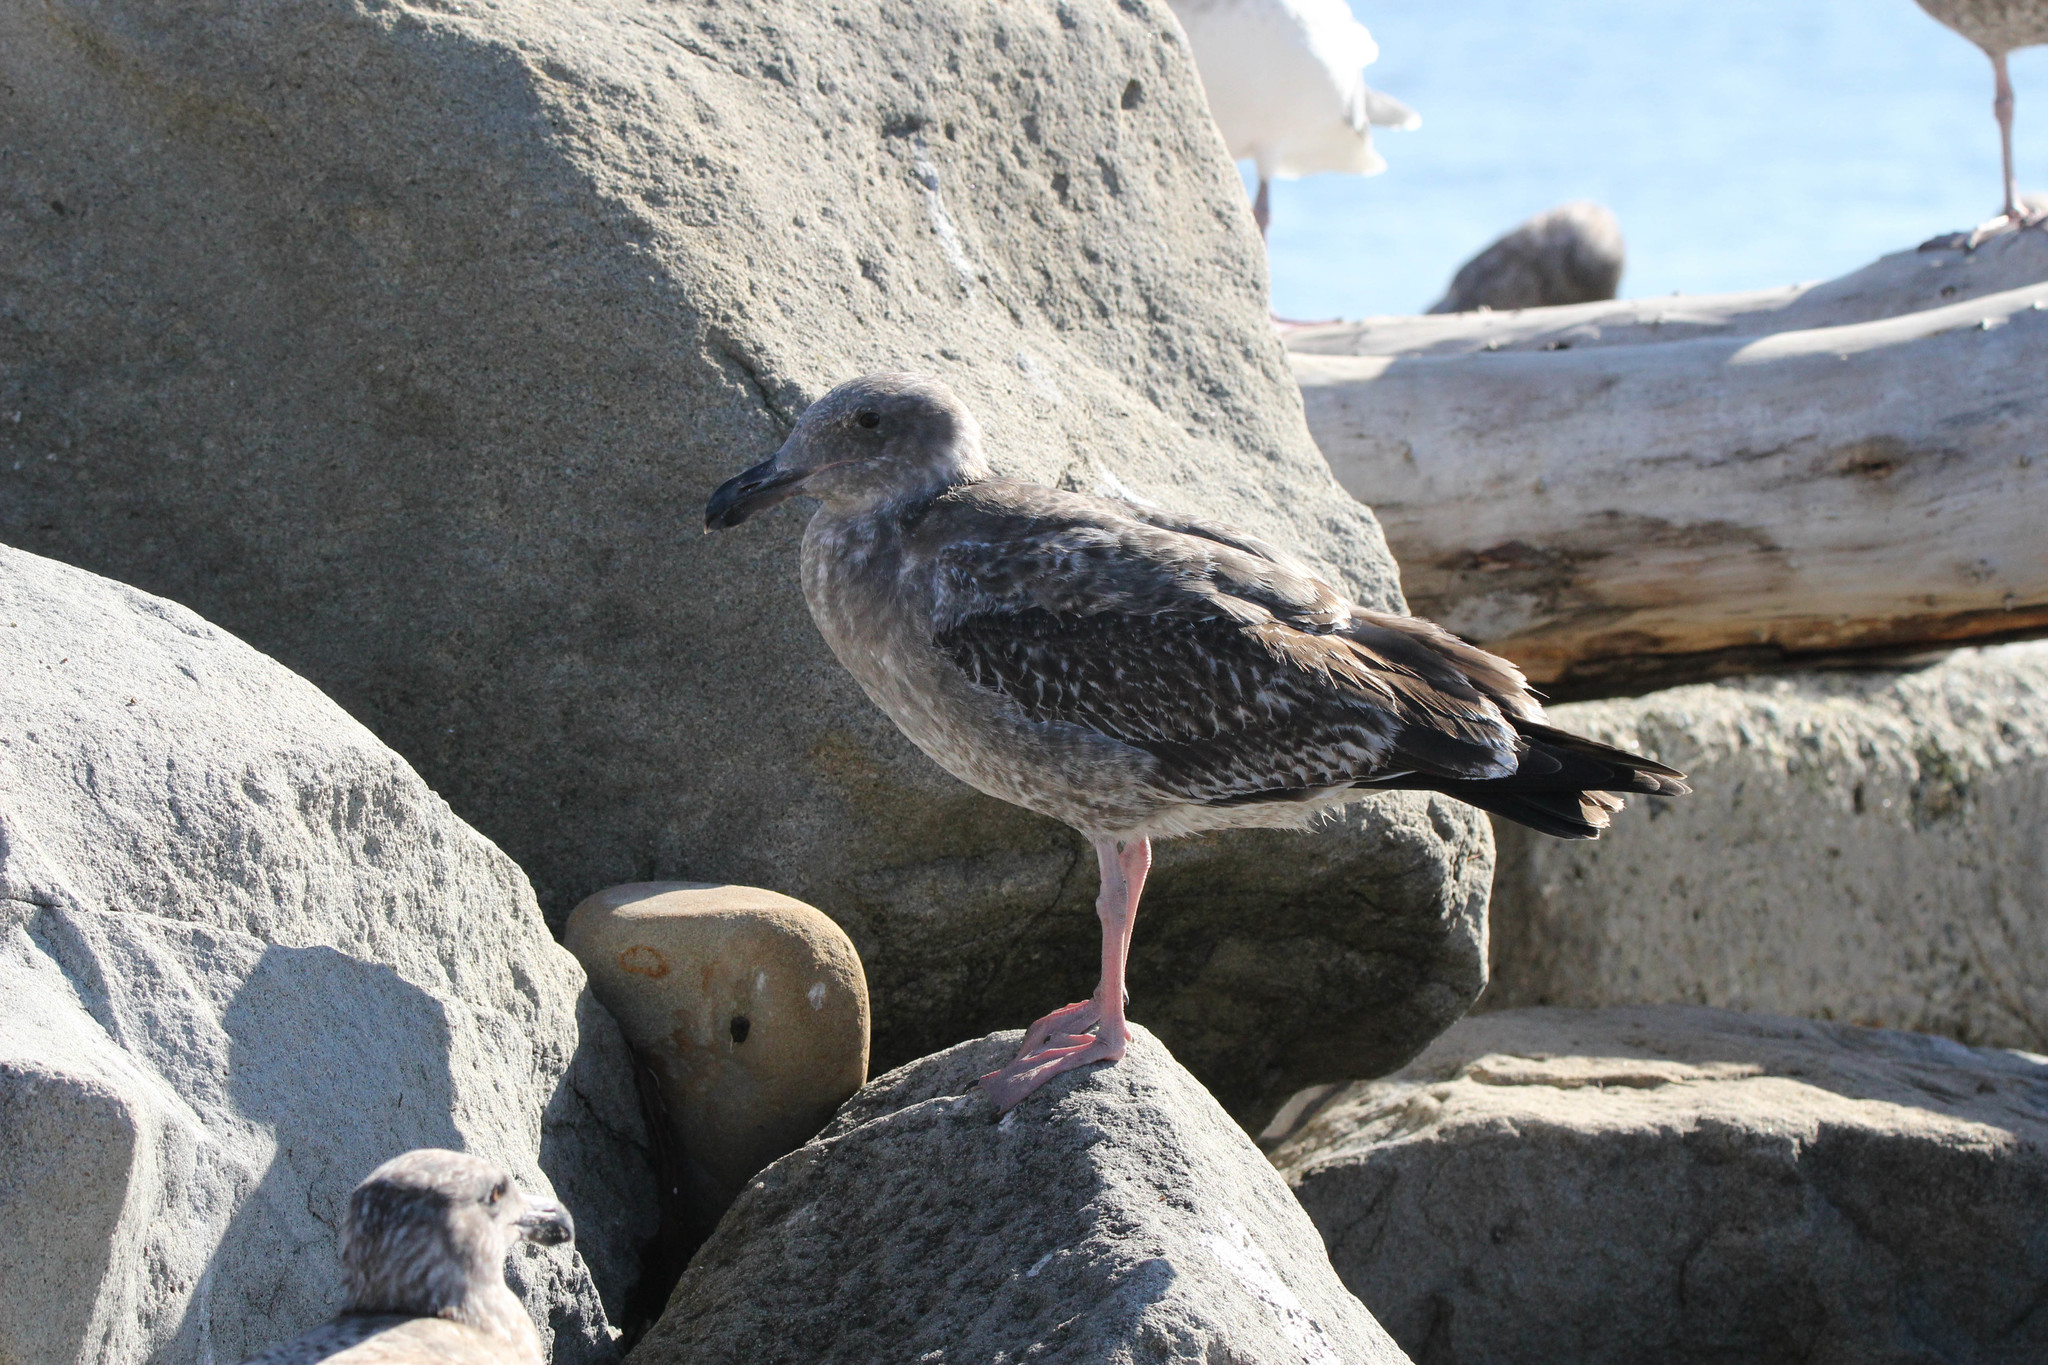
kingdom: Animalia
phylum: Chordata
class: Aves
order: Charadriiformes
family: Laridae
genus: Larus
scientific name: Larus occidentalis
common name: Western gull
